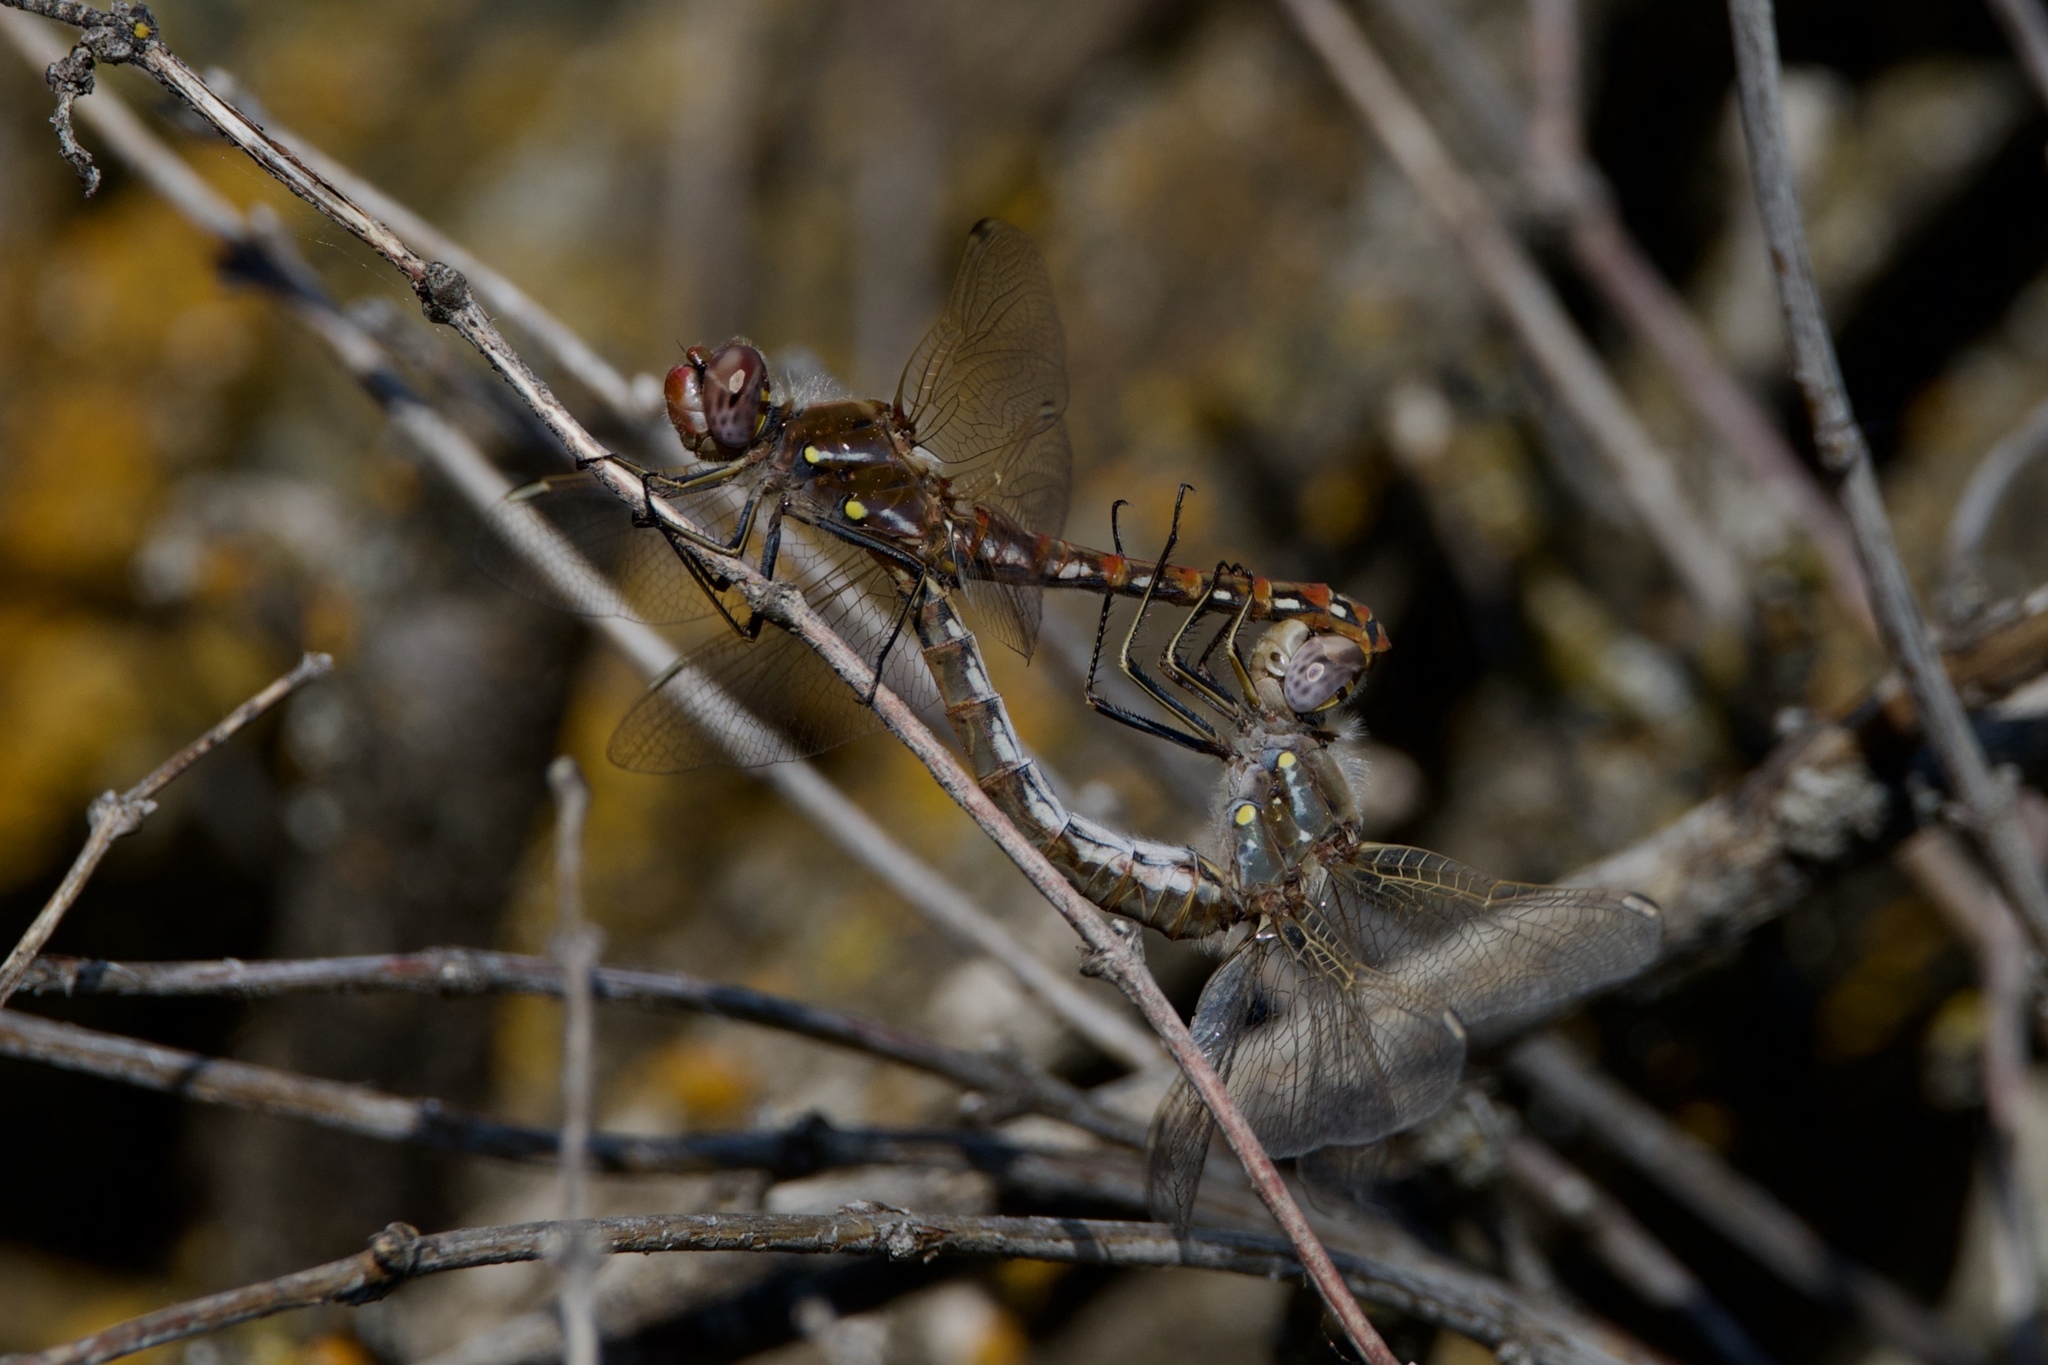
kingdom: Animalia
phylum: Arthropoda
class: Insecta
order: Odonata
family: Libellulidae
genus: Sympetrum
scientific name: Sympetrum corruptum
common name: Variegated meadowhawk
